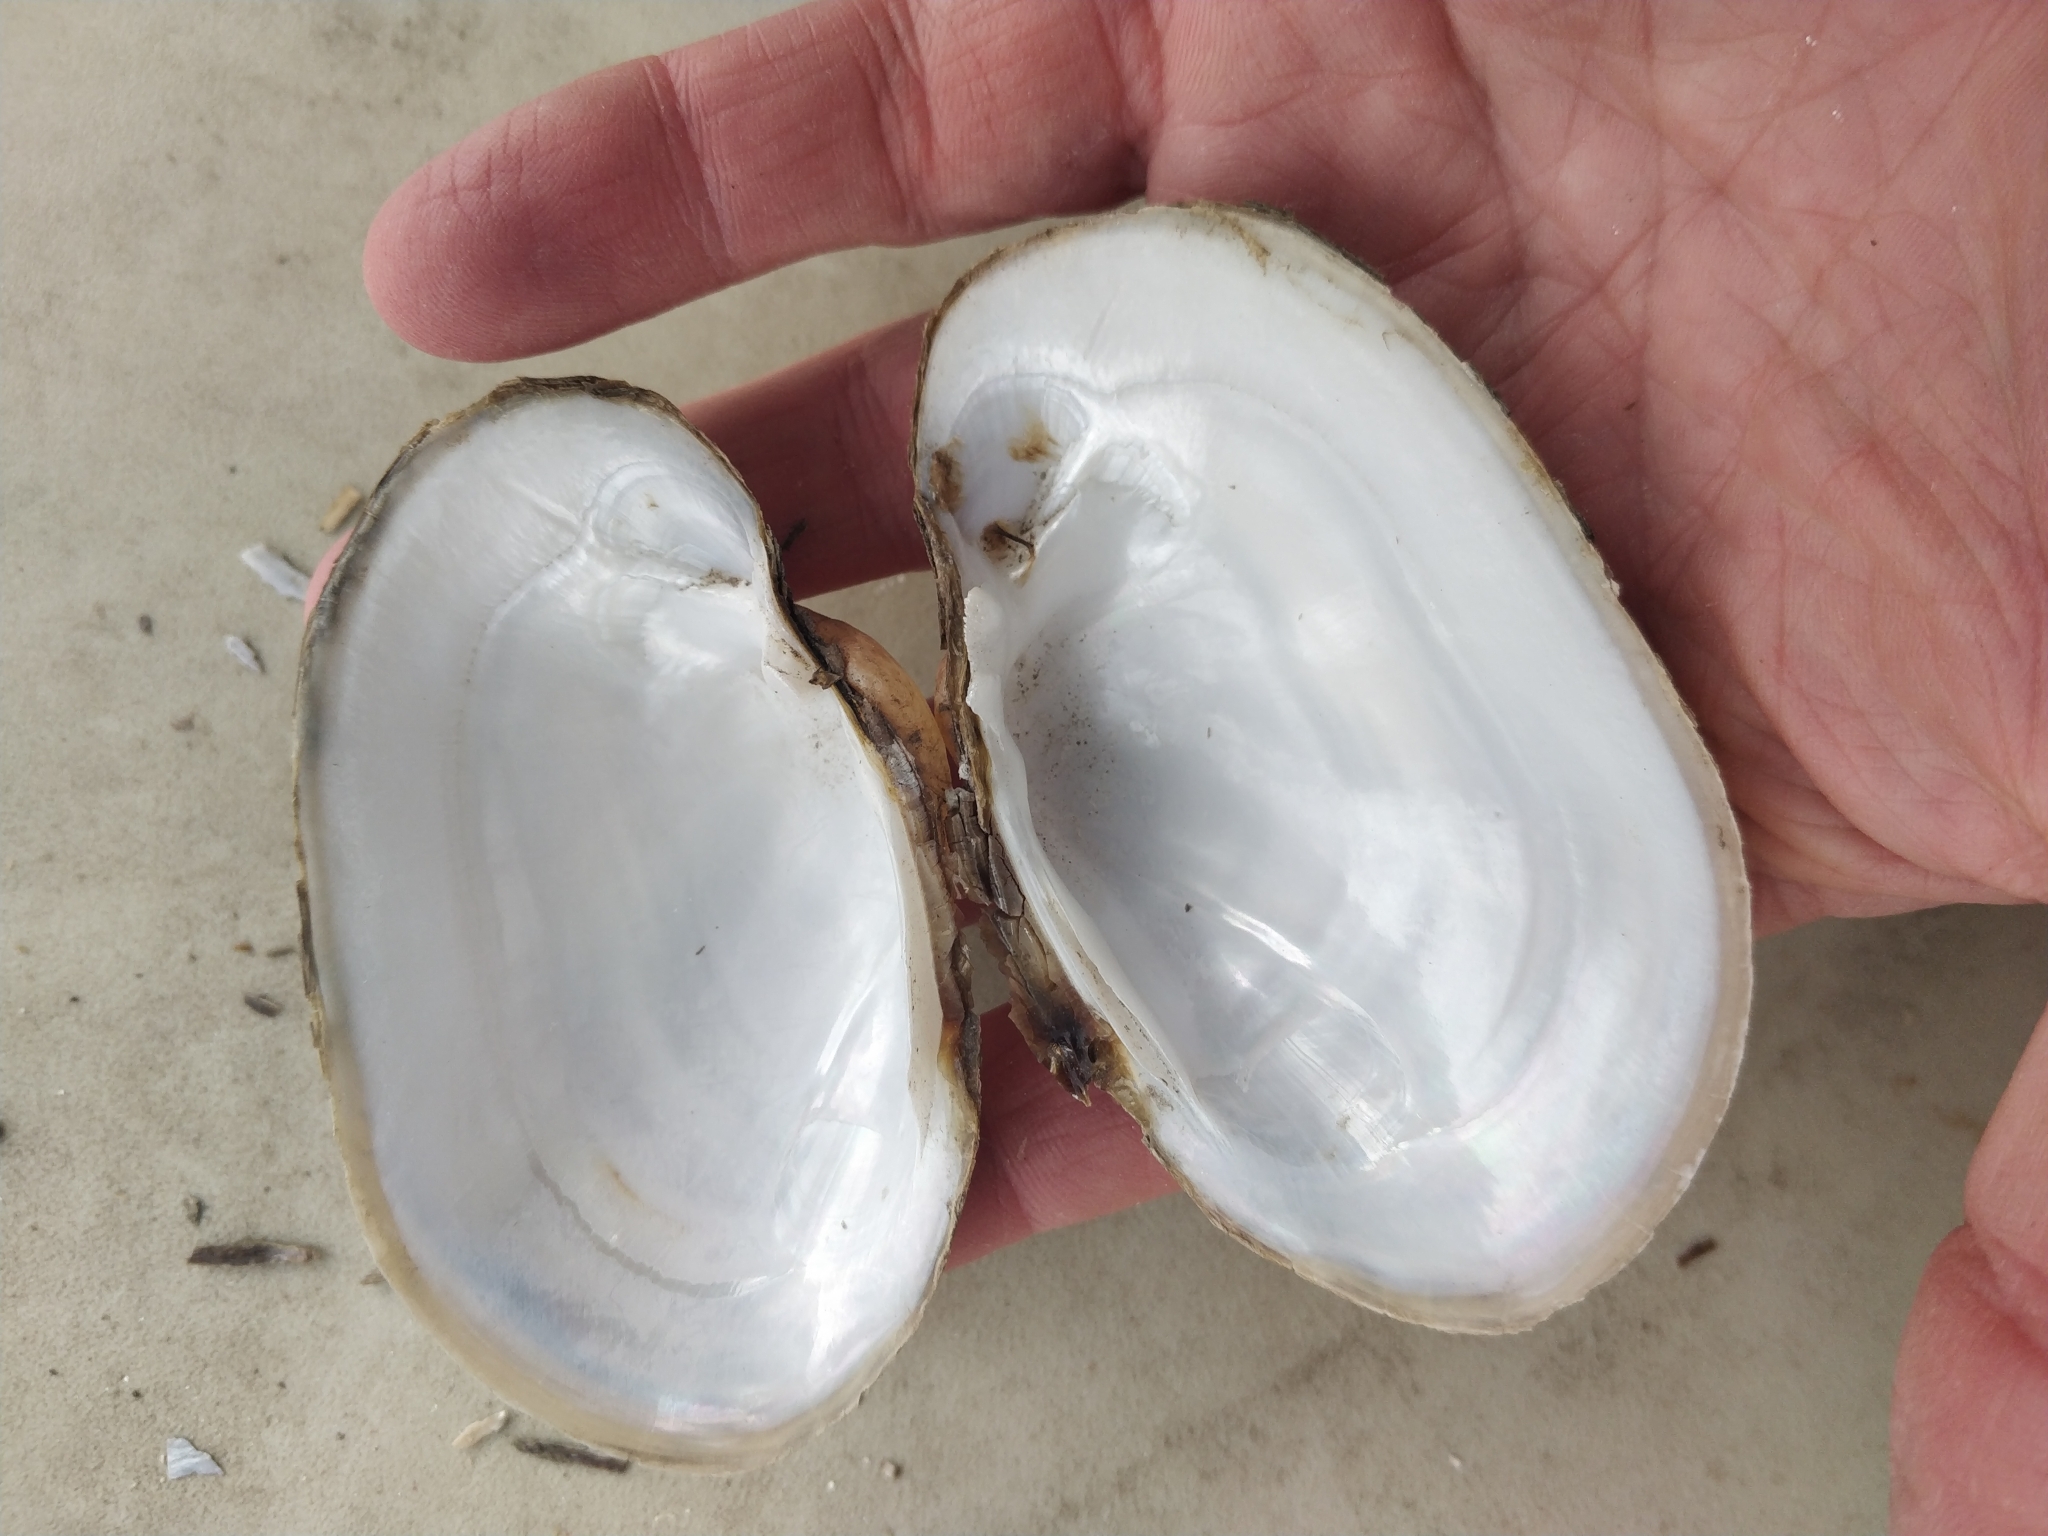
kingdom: Animalia
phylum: Mollusca
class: Bivalvia
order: Unionida
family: Unionidae
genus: Lampsilis
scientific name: Lampsilis cardium
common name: Plain pocketbook
